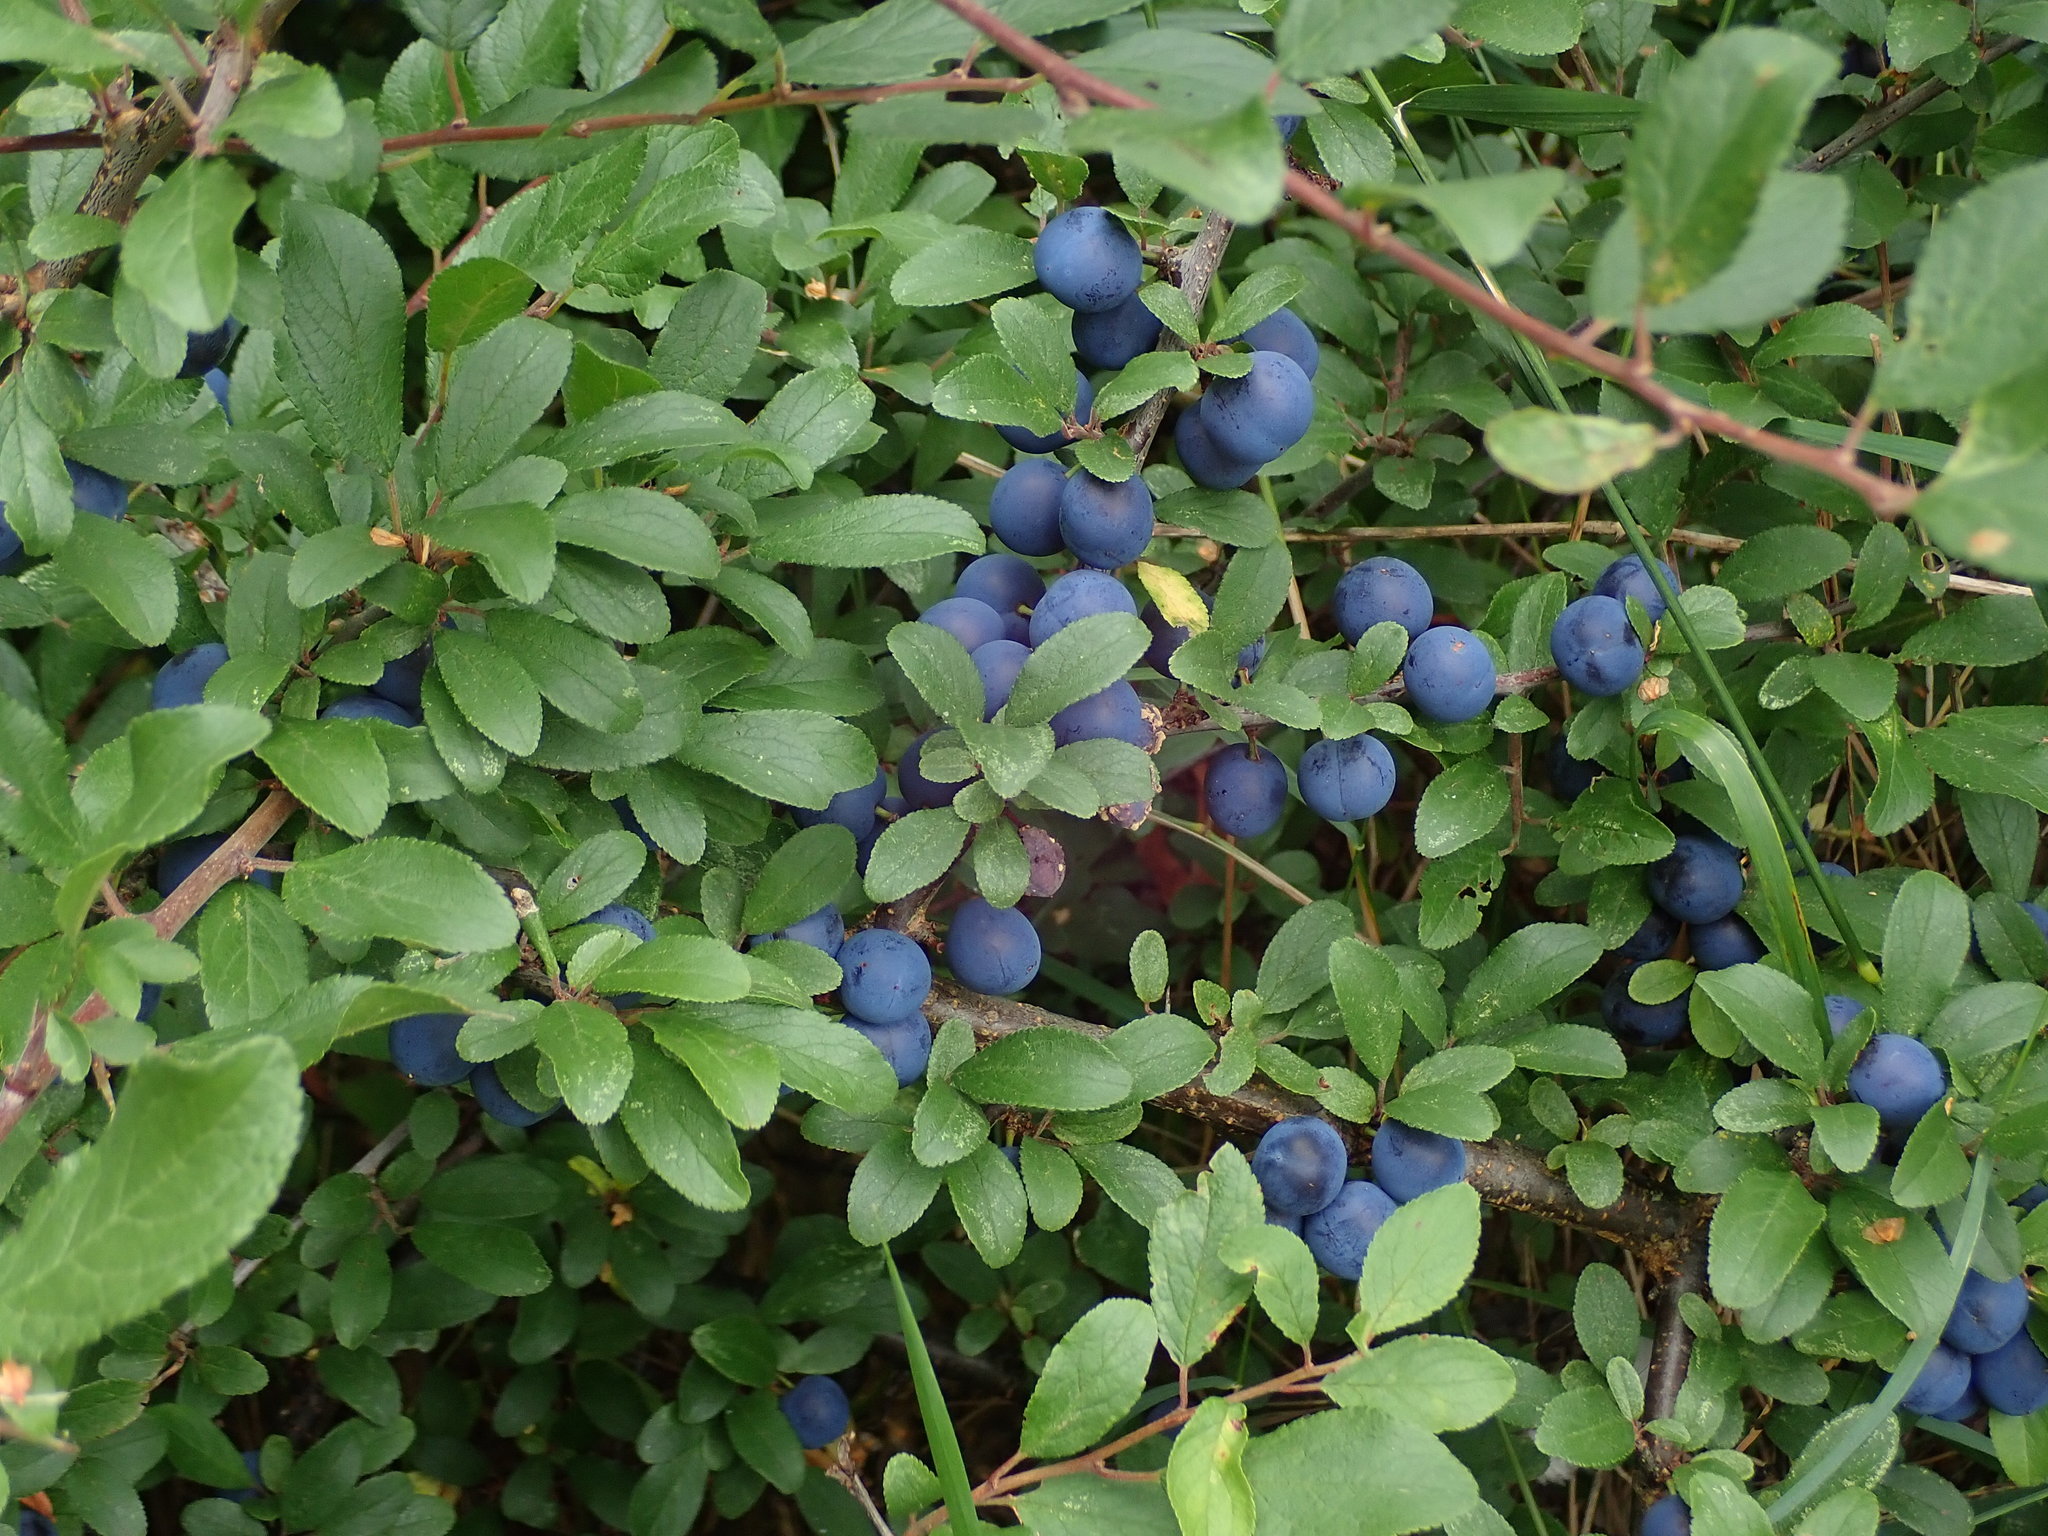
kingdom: Plantae
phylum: Tracheophyta
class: Magnoliopsida
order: Rosales
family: Rosaceae
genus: Prunus
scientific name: Prunus spinosa
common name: Blackthorn
